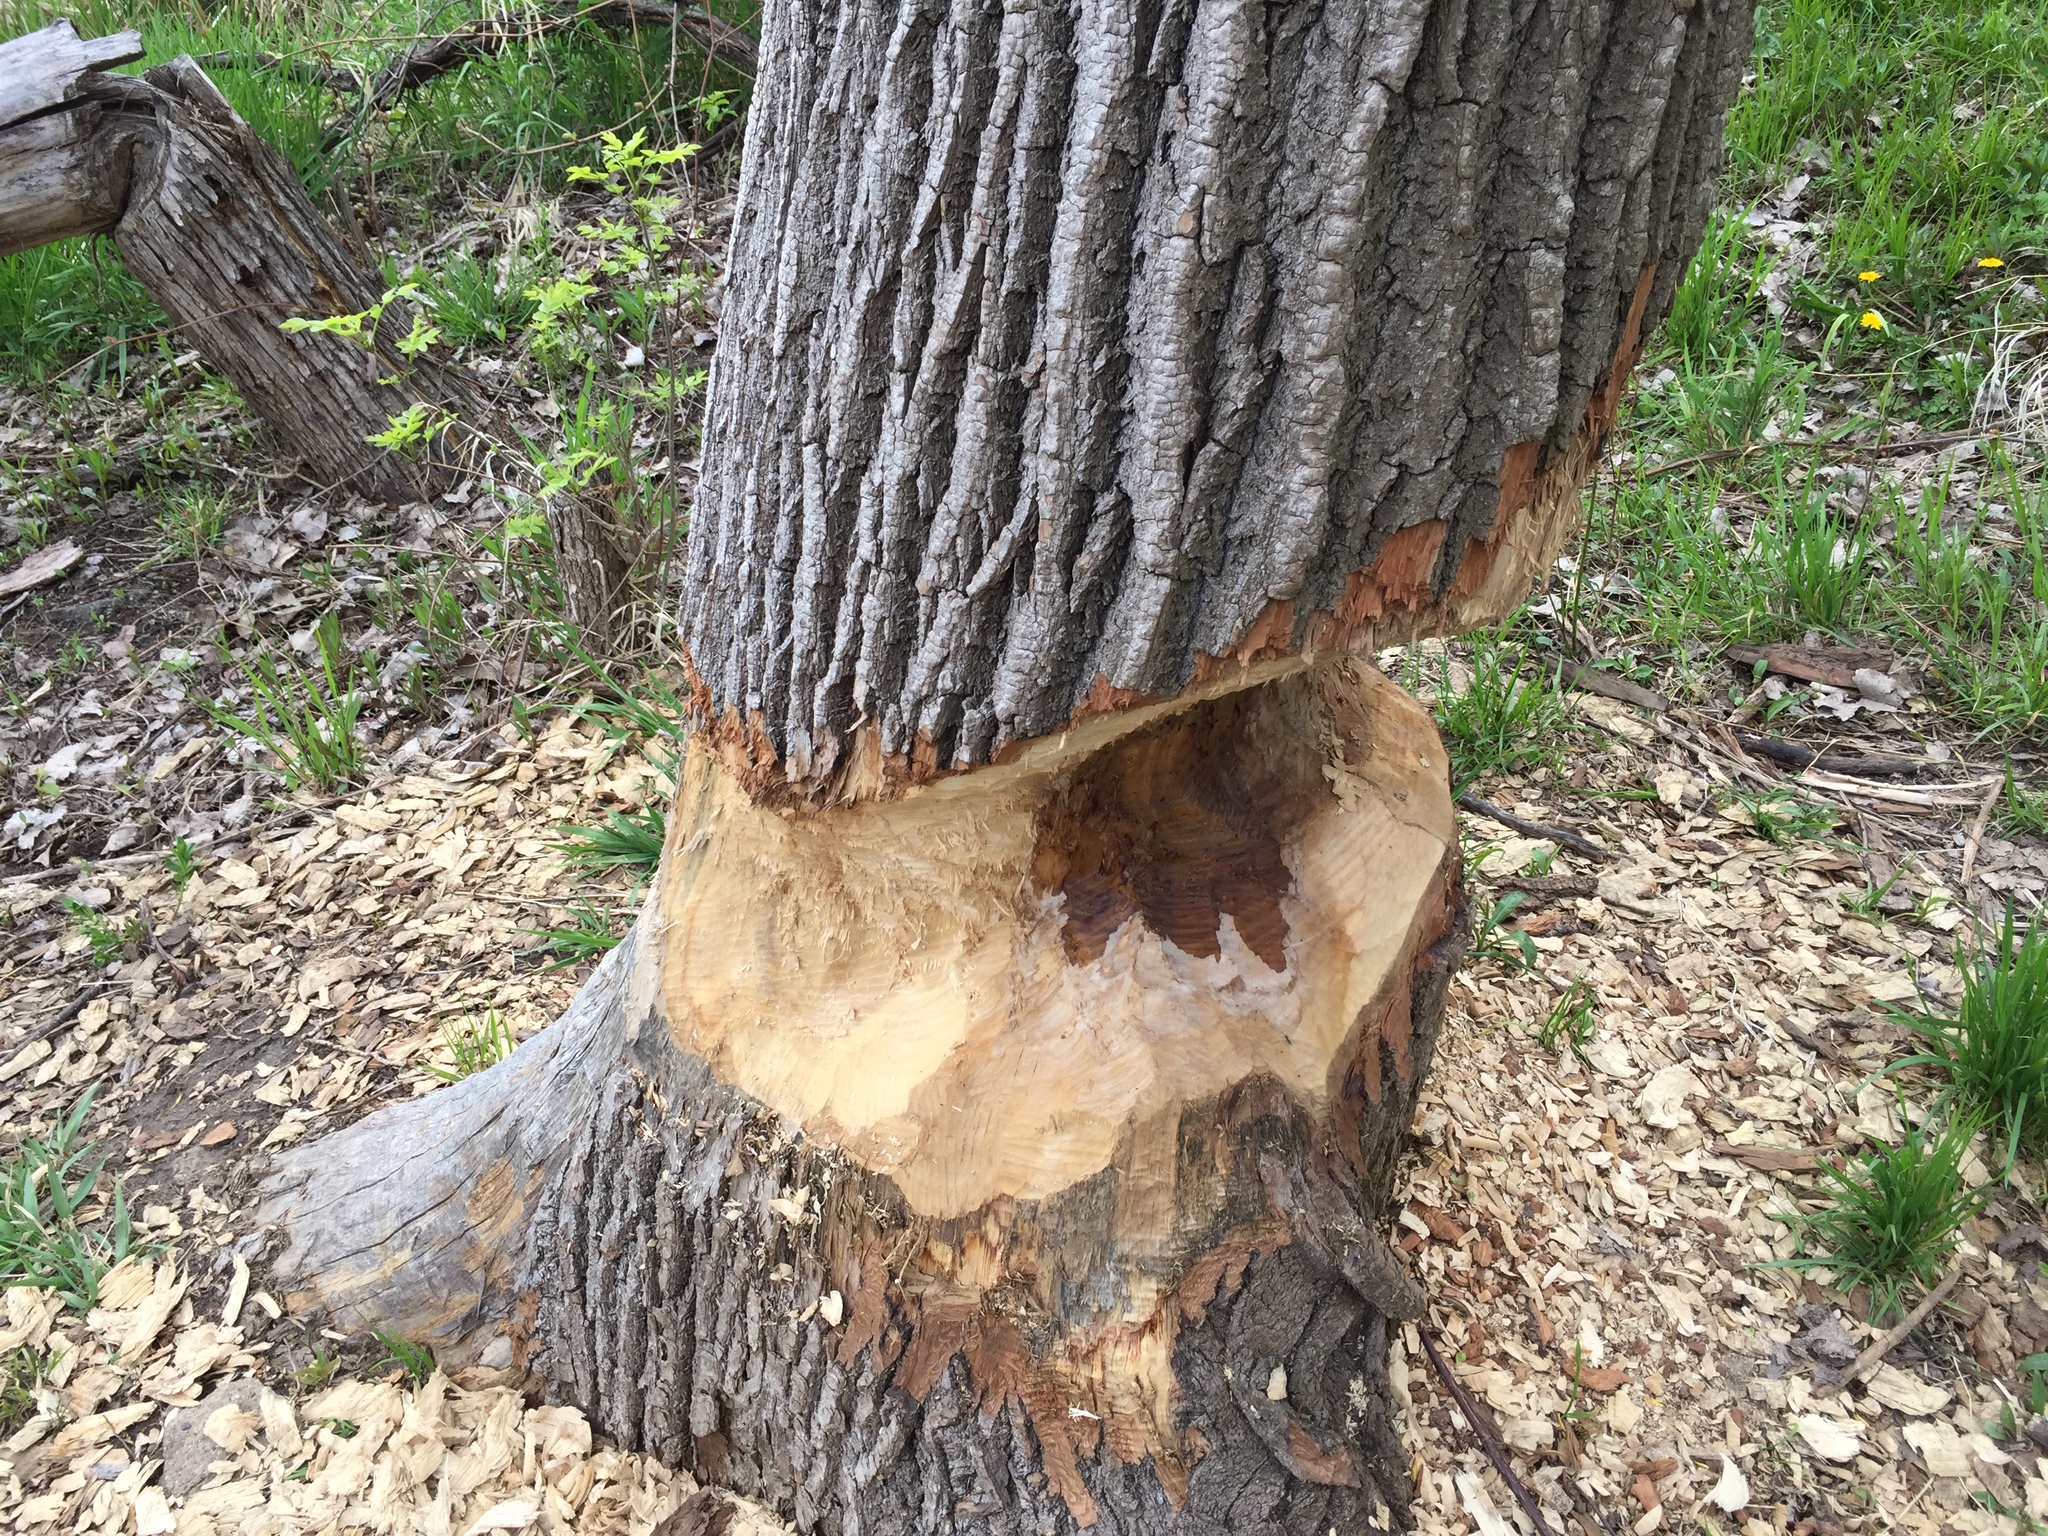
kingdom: Animalia
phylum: Chordata
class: Mammalia
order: Rodentia
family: Castoridae
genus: Castor
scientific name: Castor canadensis
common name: American beaver
